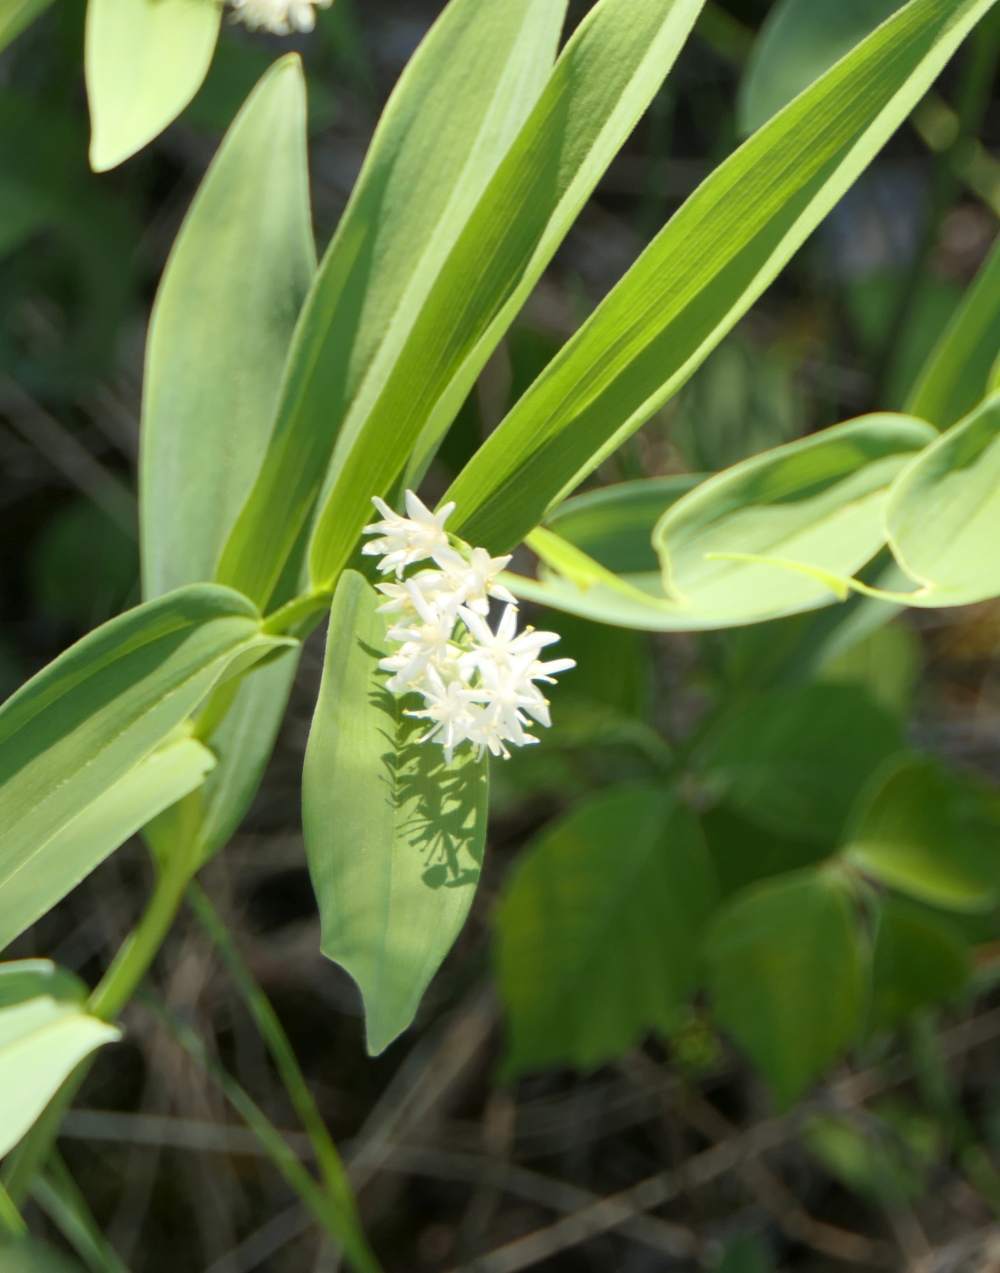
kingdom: Plantae
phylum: Tracheophyta
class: Liliopsida
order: Asparagales
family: Asparagaceae
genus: Maianthemum
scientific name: Maianthemum stellatum
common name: Little false solomon's seal
